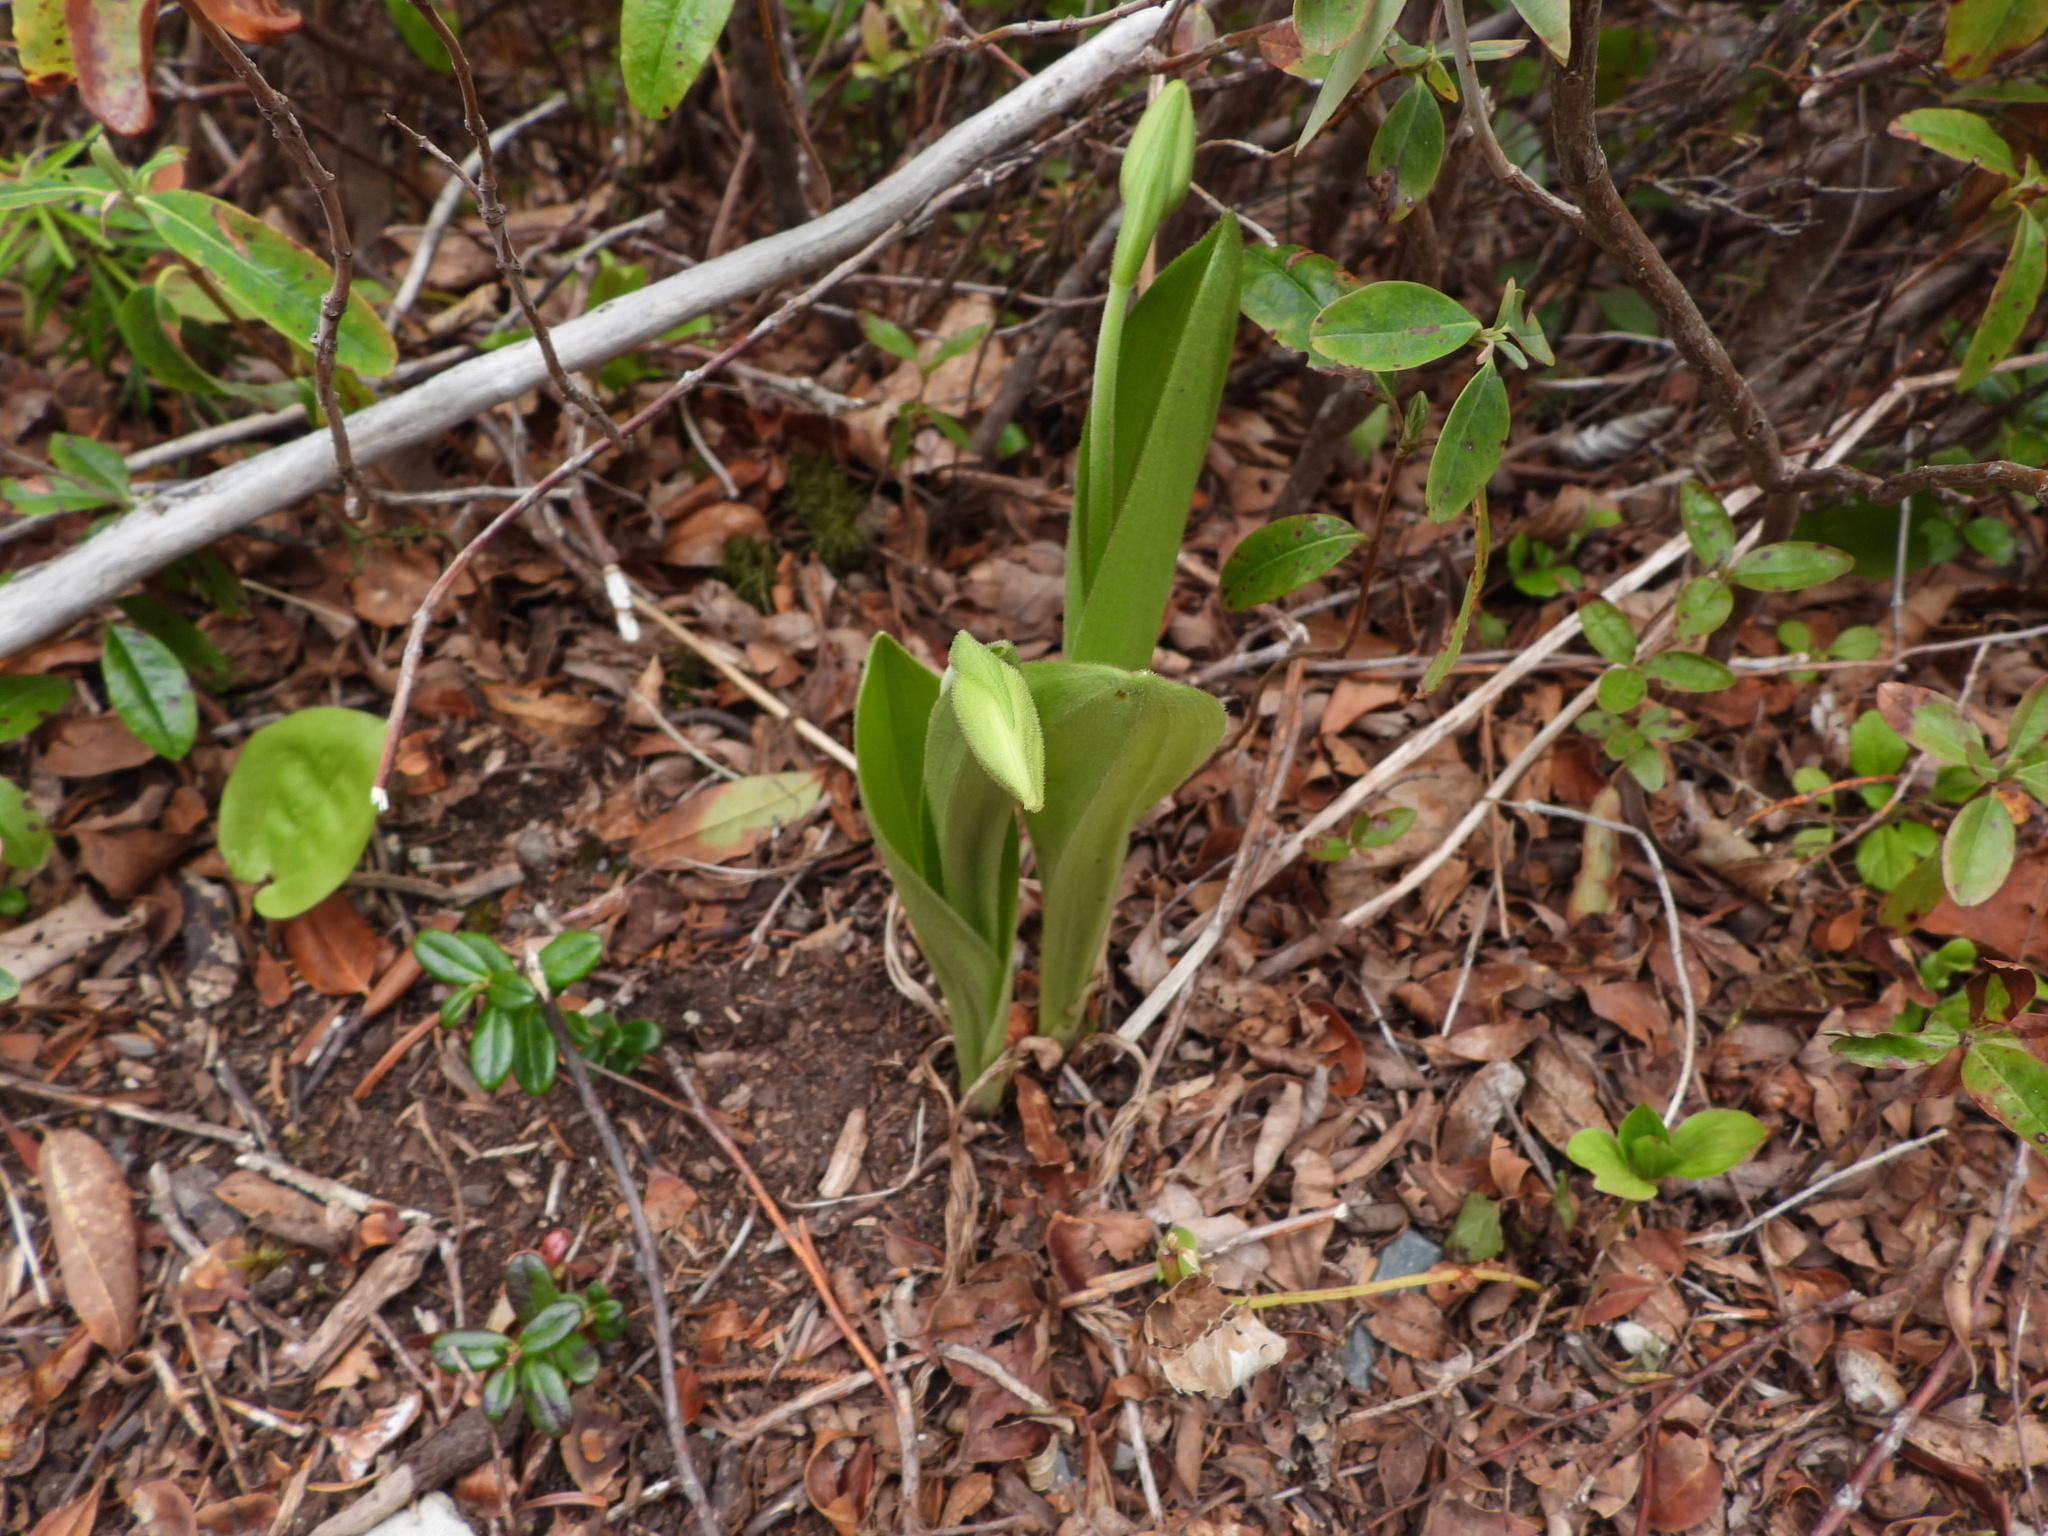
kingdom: Plantae
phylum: Tracheophyta
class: Liliopsida
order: Asparagales
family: Orchidaceae
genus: Cypripedium
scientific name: Cypripedium acaule
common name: Pink lady's-slipper
